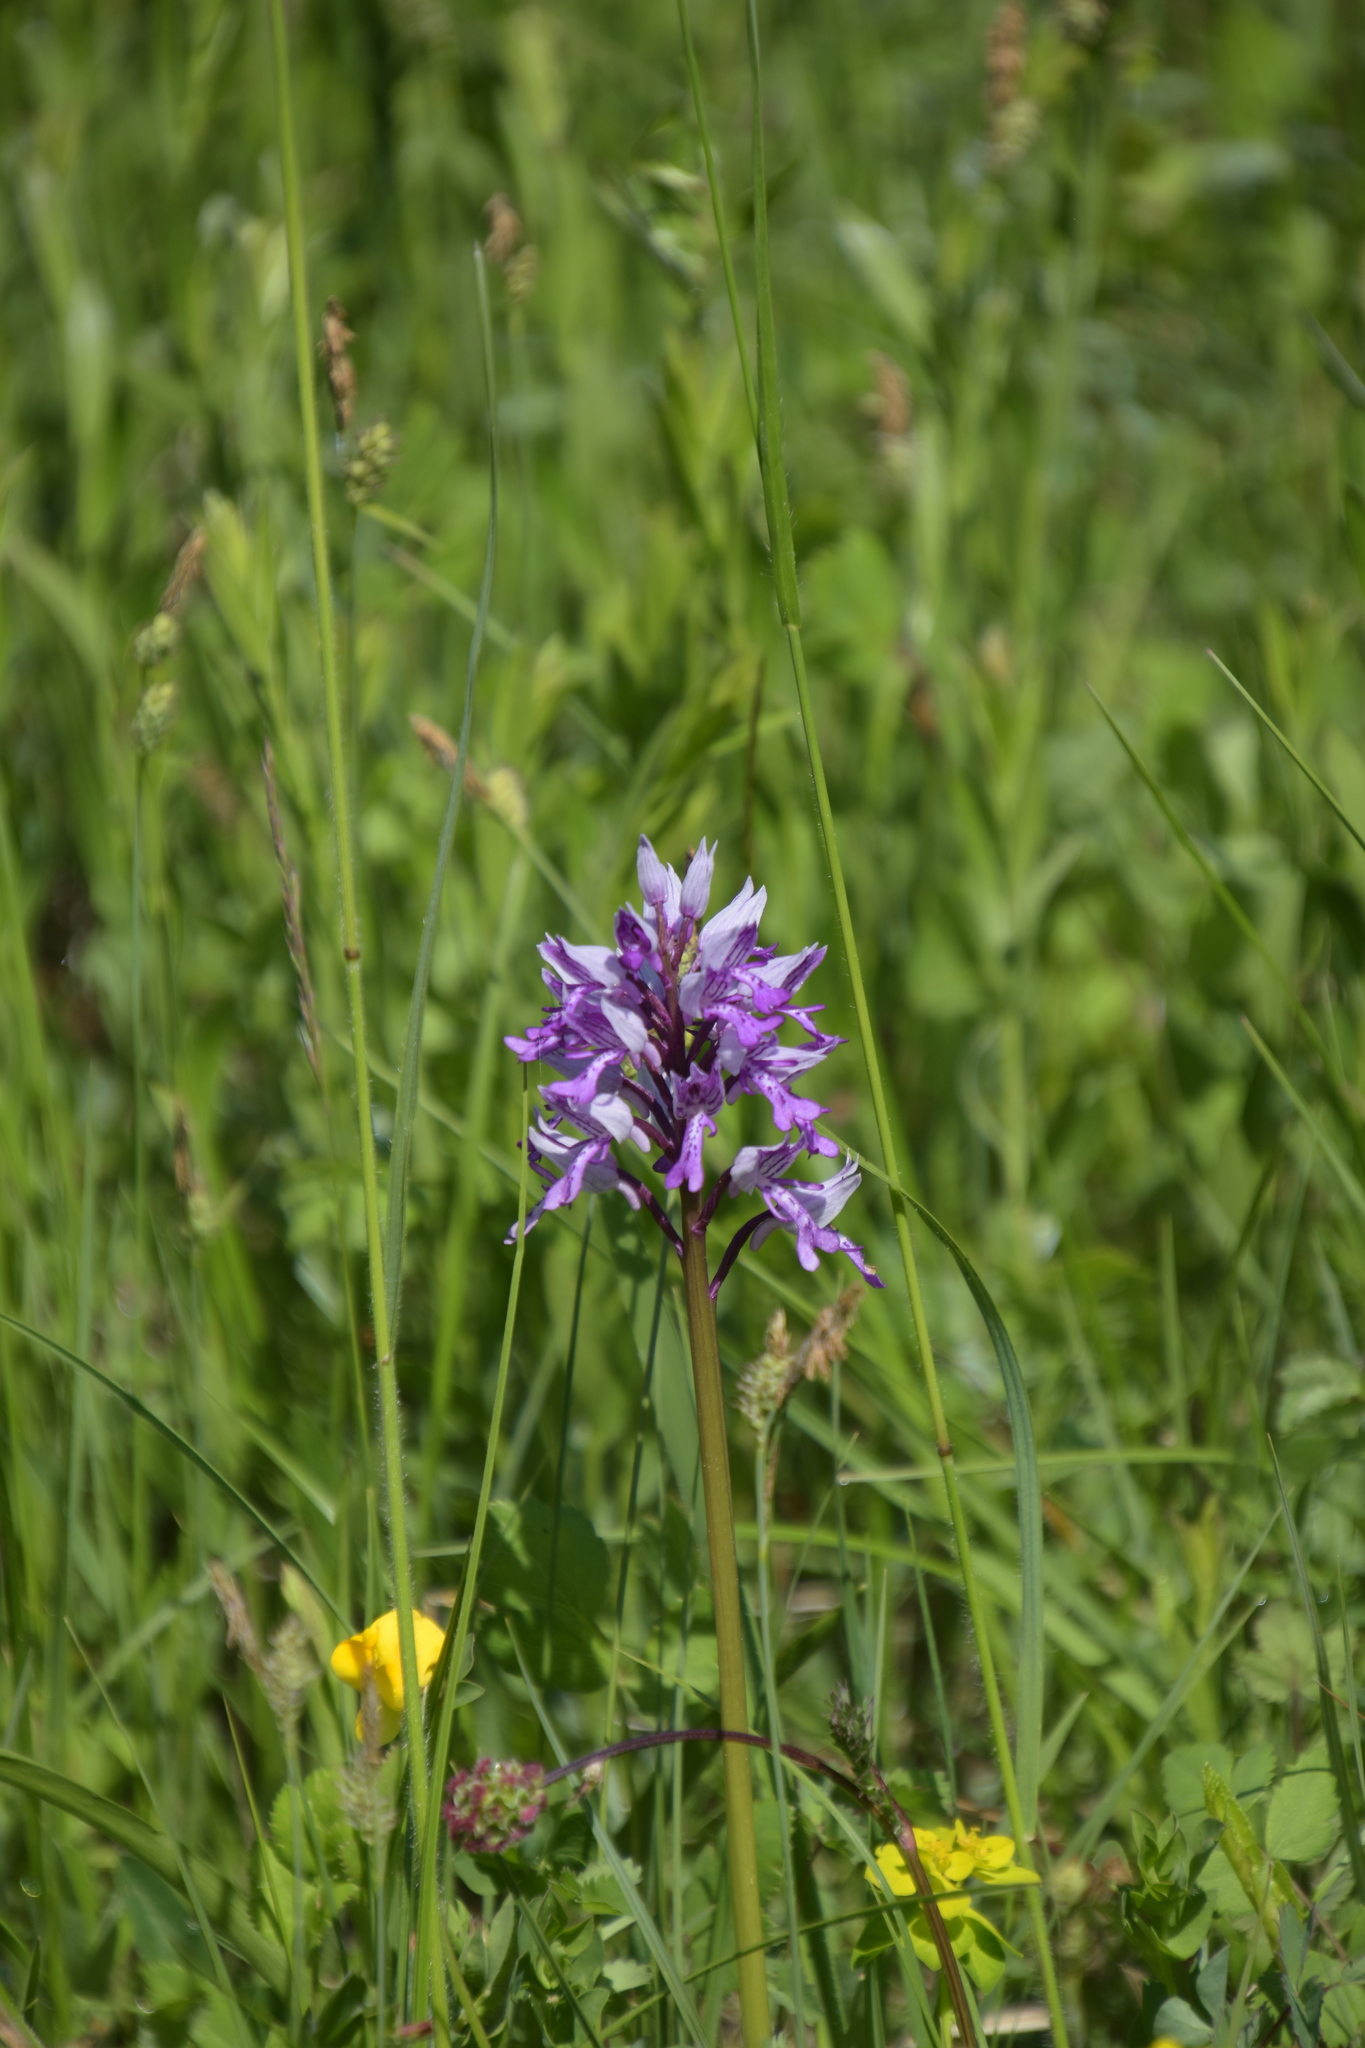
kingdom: Plantae
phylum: Tracheophyta
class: Liliopsida
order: Asparagales
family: Orchidaceae
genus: Orchis
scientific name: Orchis militaris
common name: Military orchid
